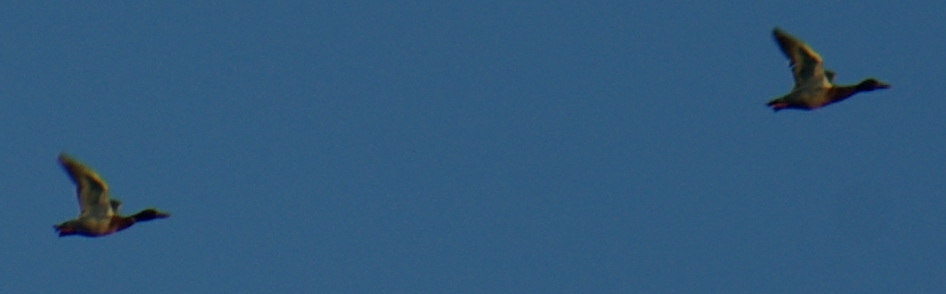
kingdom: Animalia
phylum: Chordata
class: Aves
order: Anseriformes
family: Anatidae
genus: Anas
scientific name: Anas platyrhynchos
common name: Mallard
